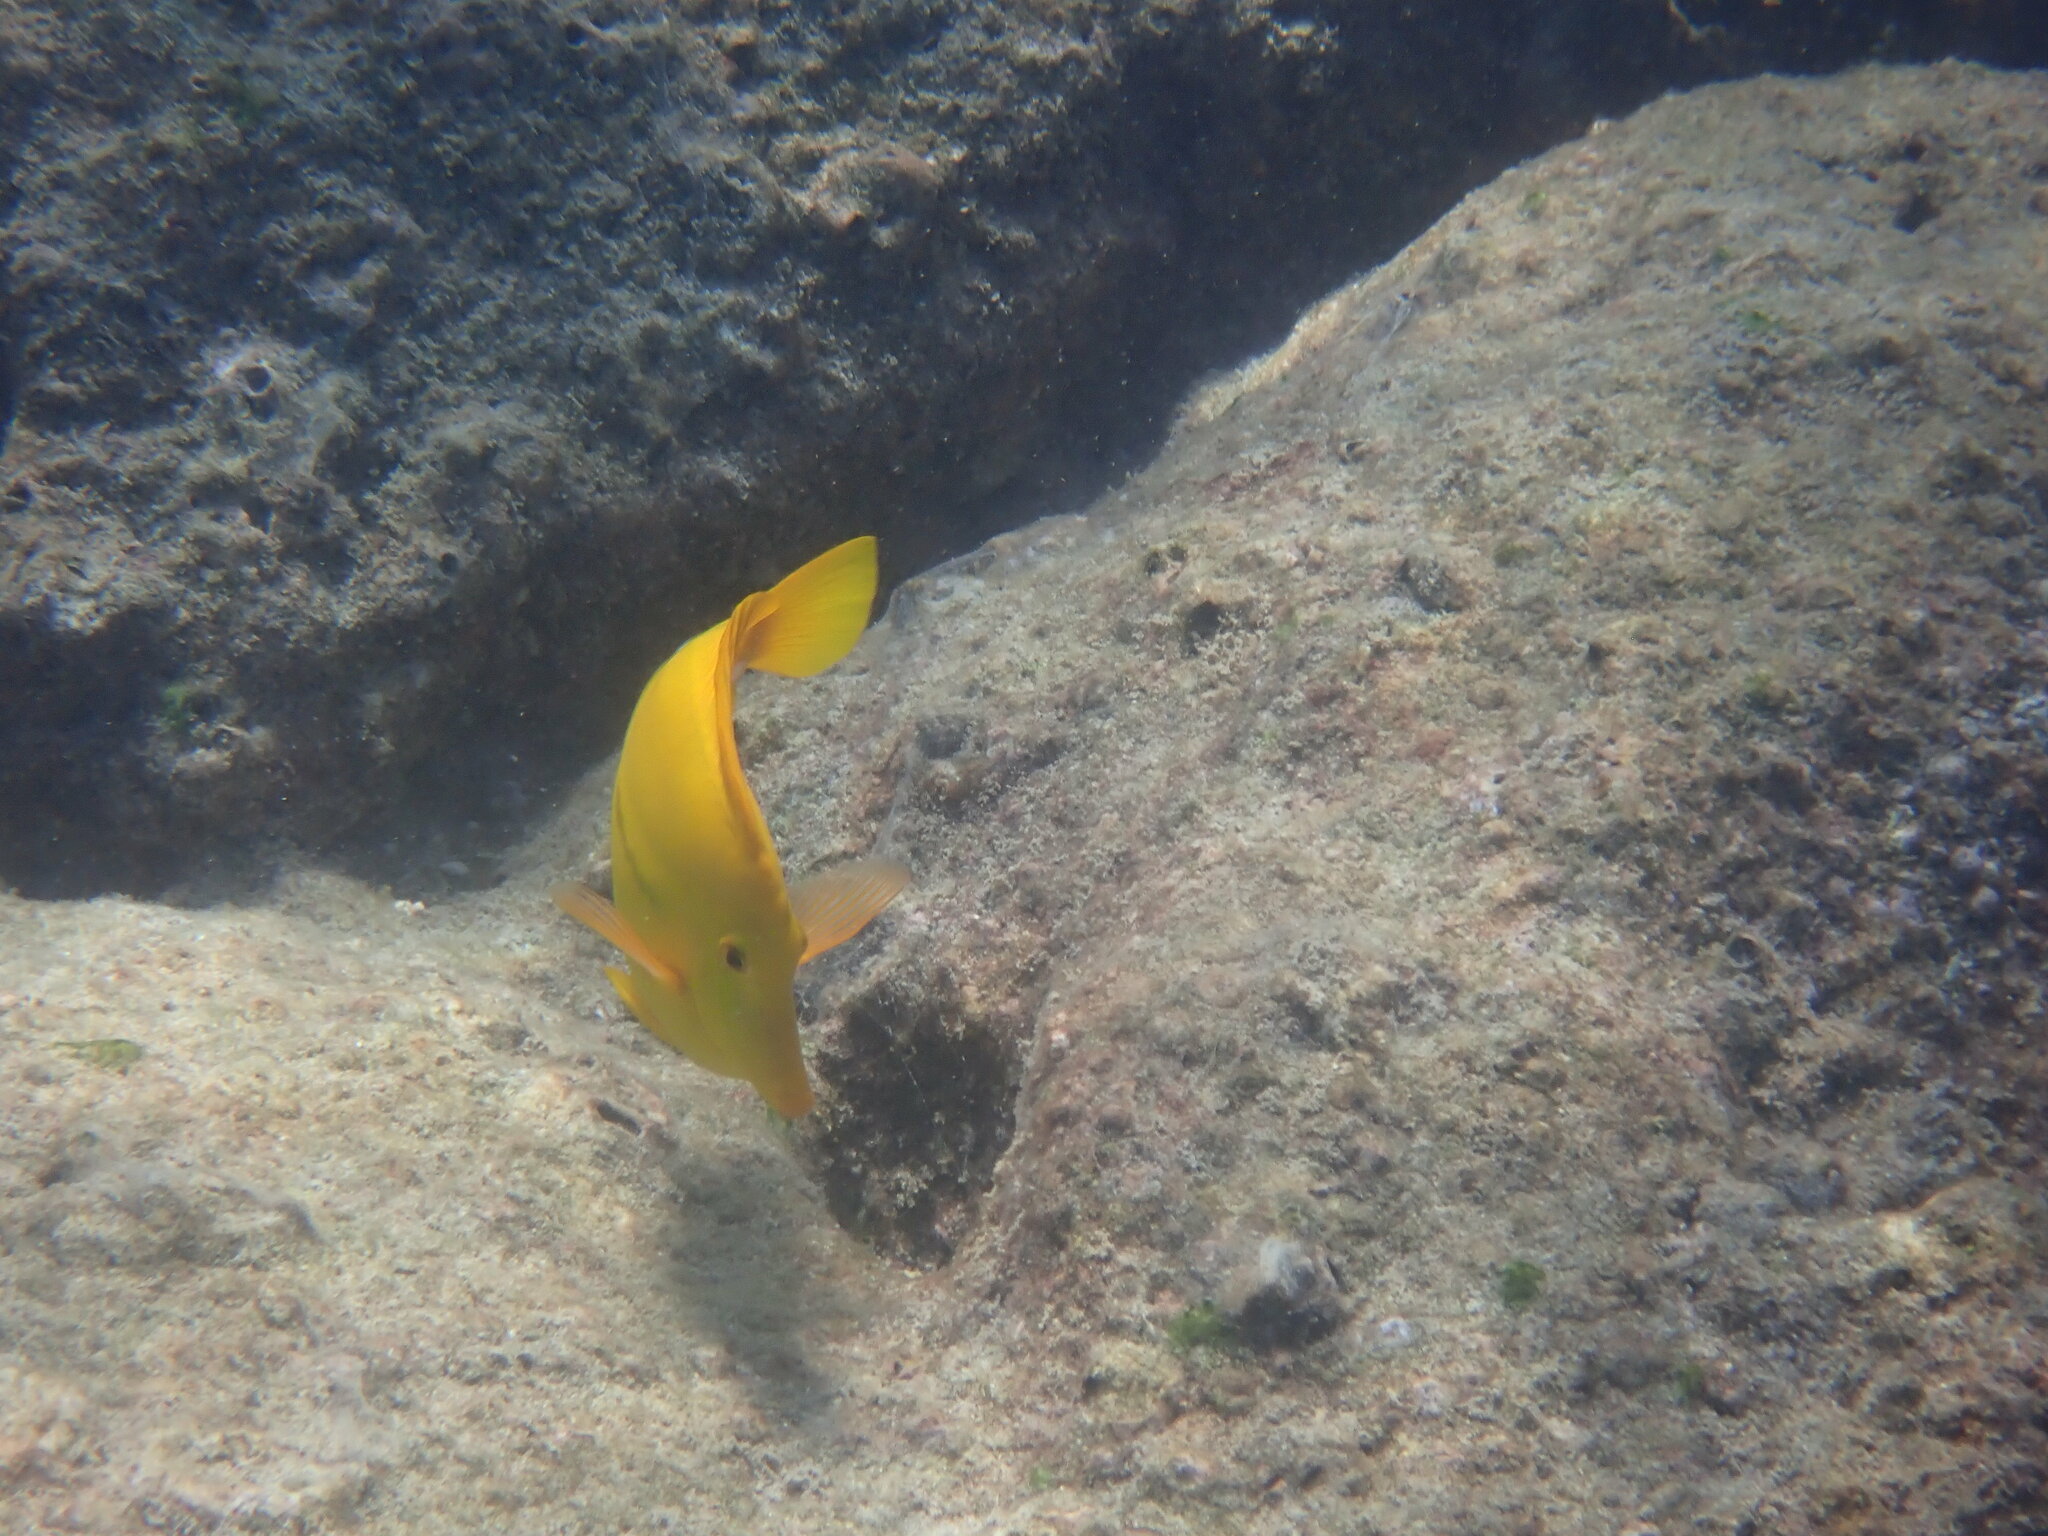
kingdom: Animalia
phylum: Chordata
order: Perciformes
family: Acanthuridae
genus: Zebrasoma
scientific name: Zebrasoma flavescens
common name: Yellow tang
